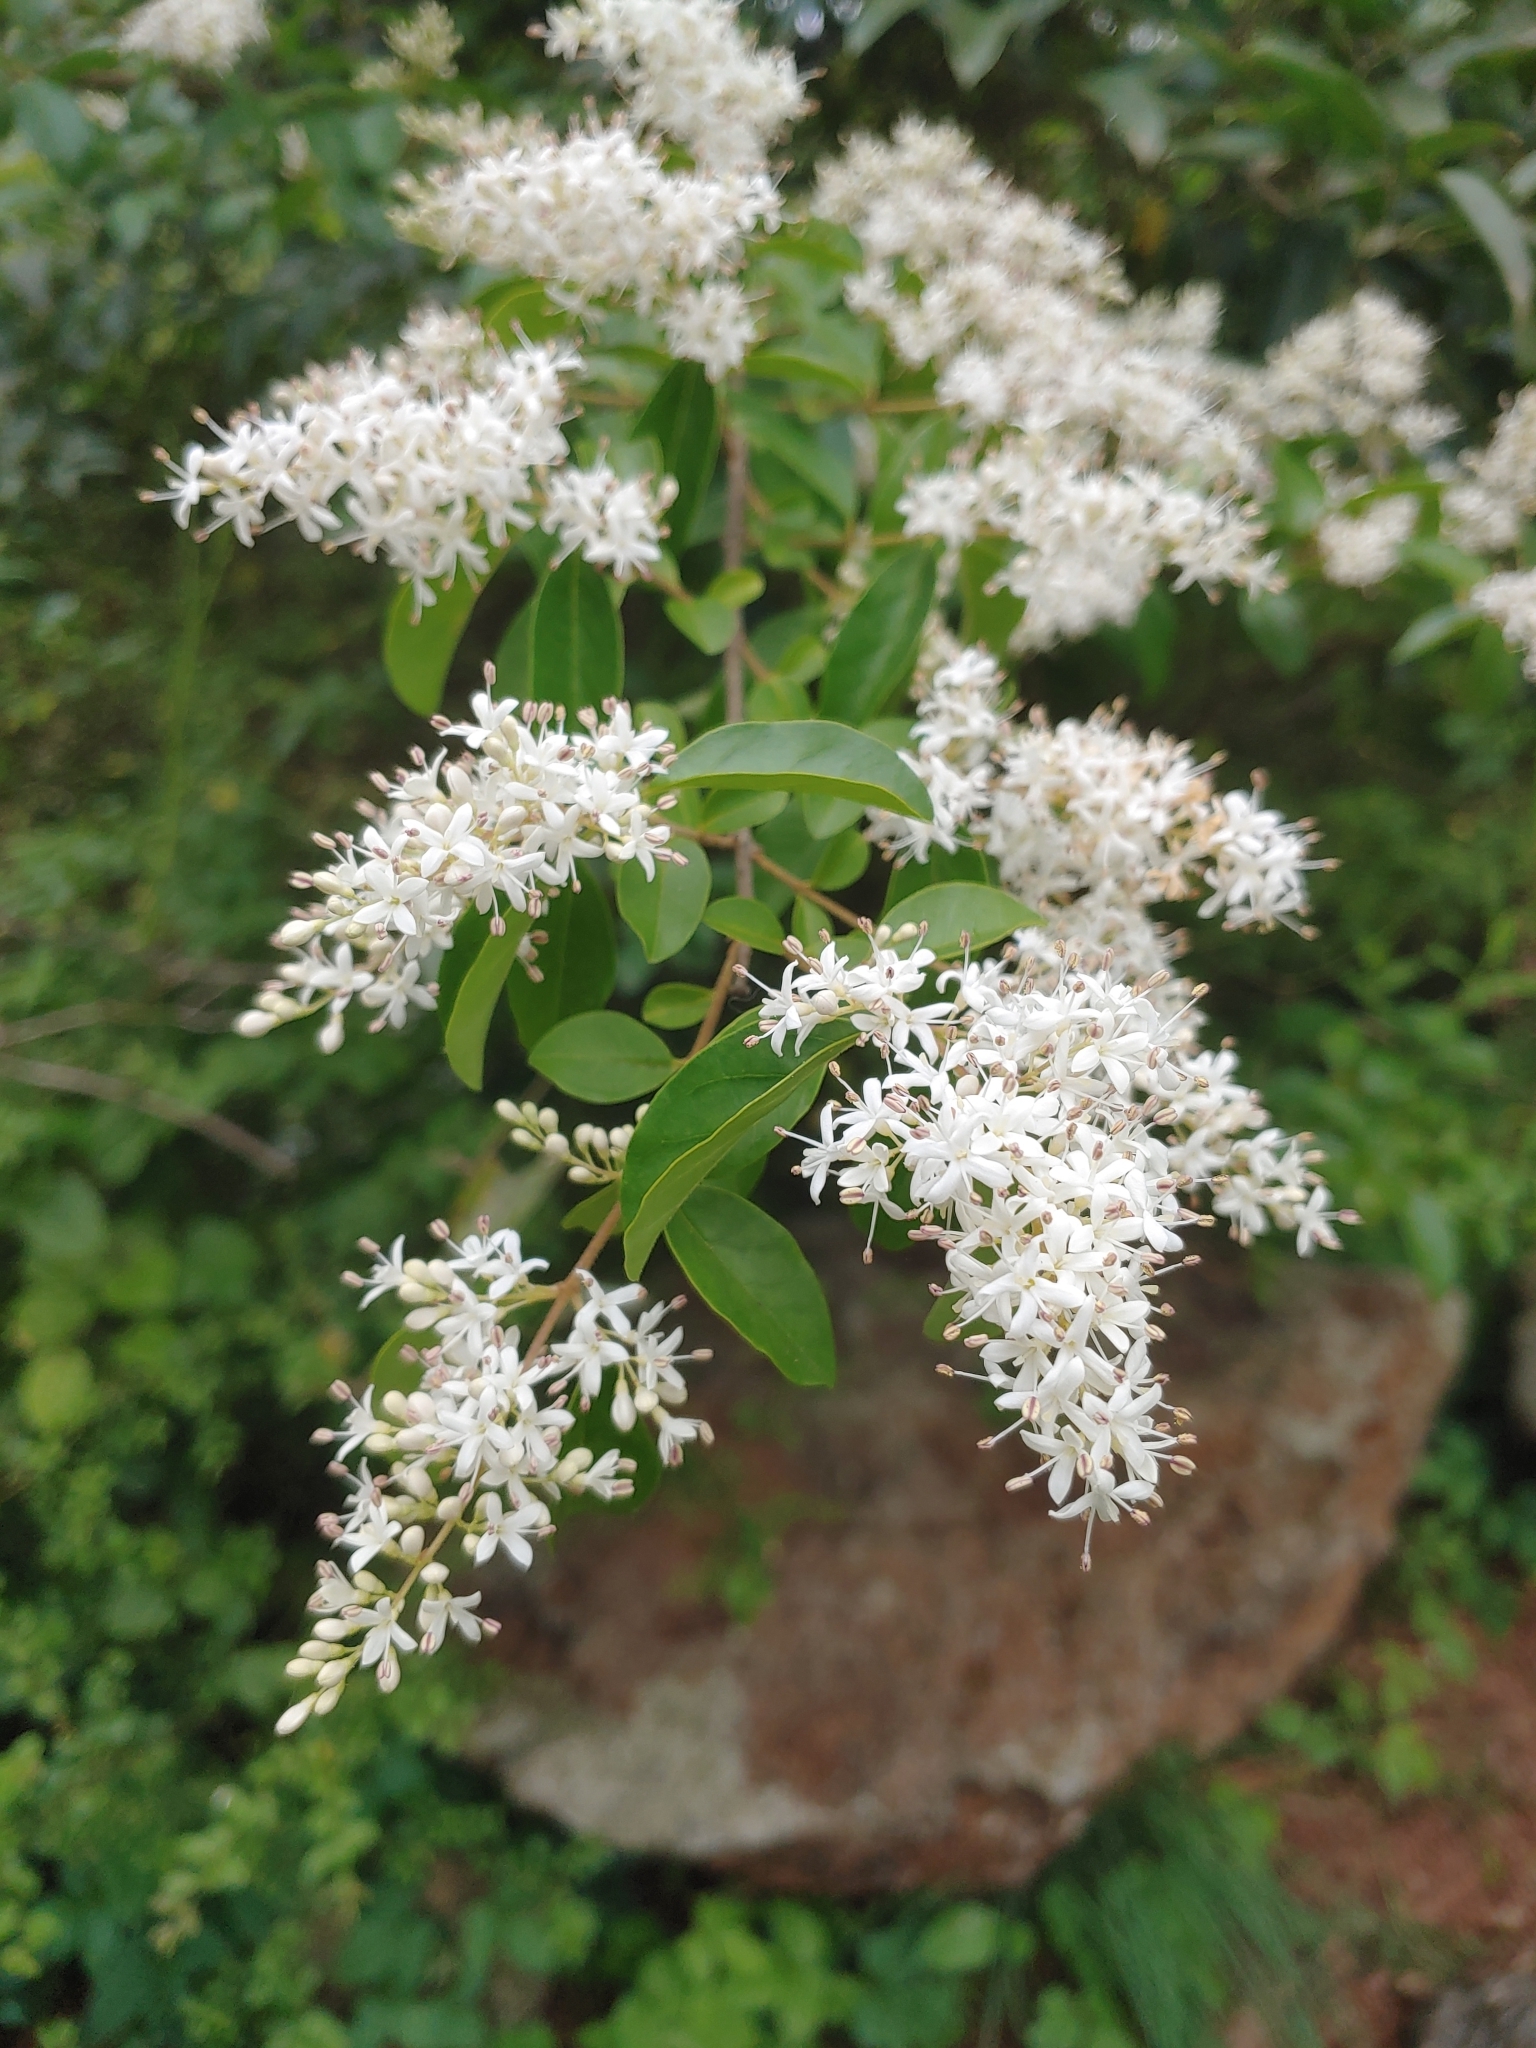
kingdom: Plantae
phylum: Tracheophyta
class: Magnoliopsida
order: Lamiales
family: Oleaceae
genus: Ligustrum
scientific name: Ligustrum sinense
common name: Chinese privet
